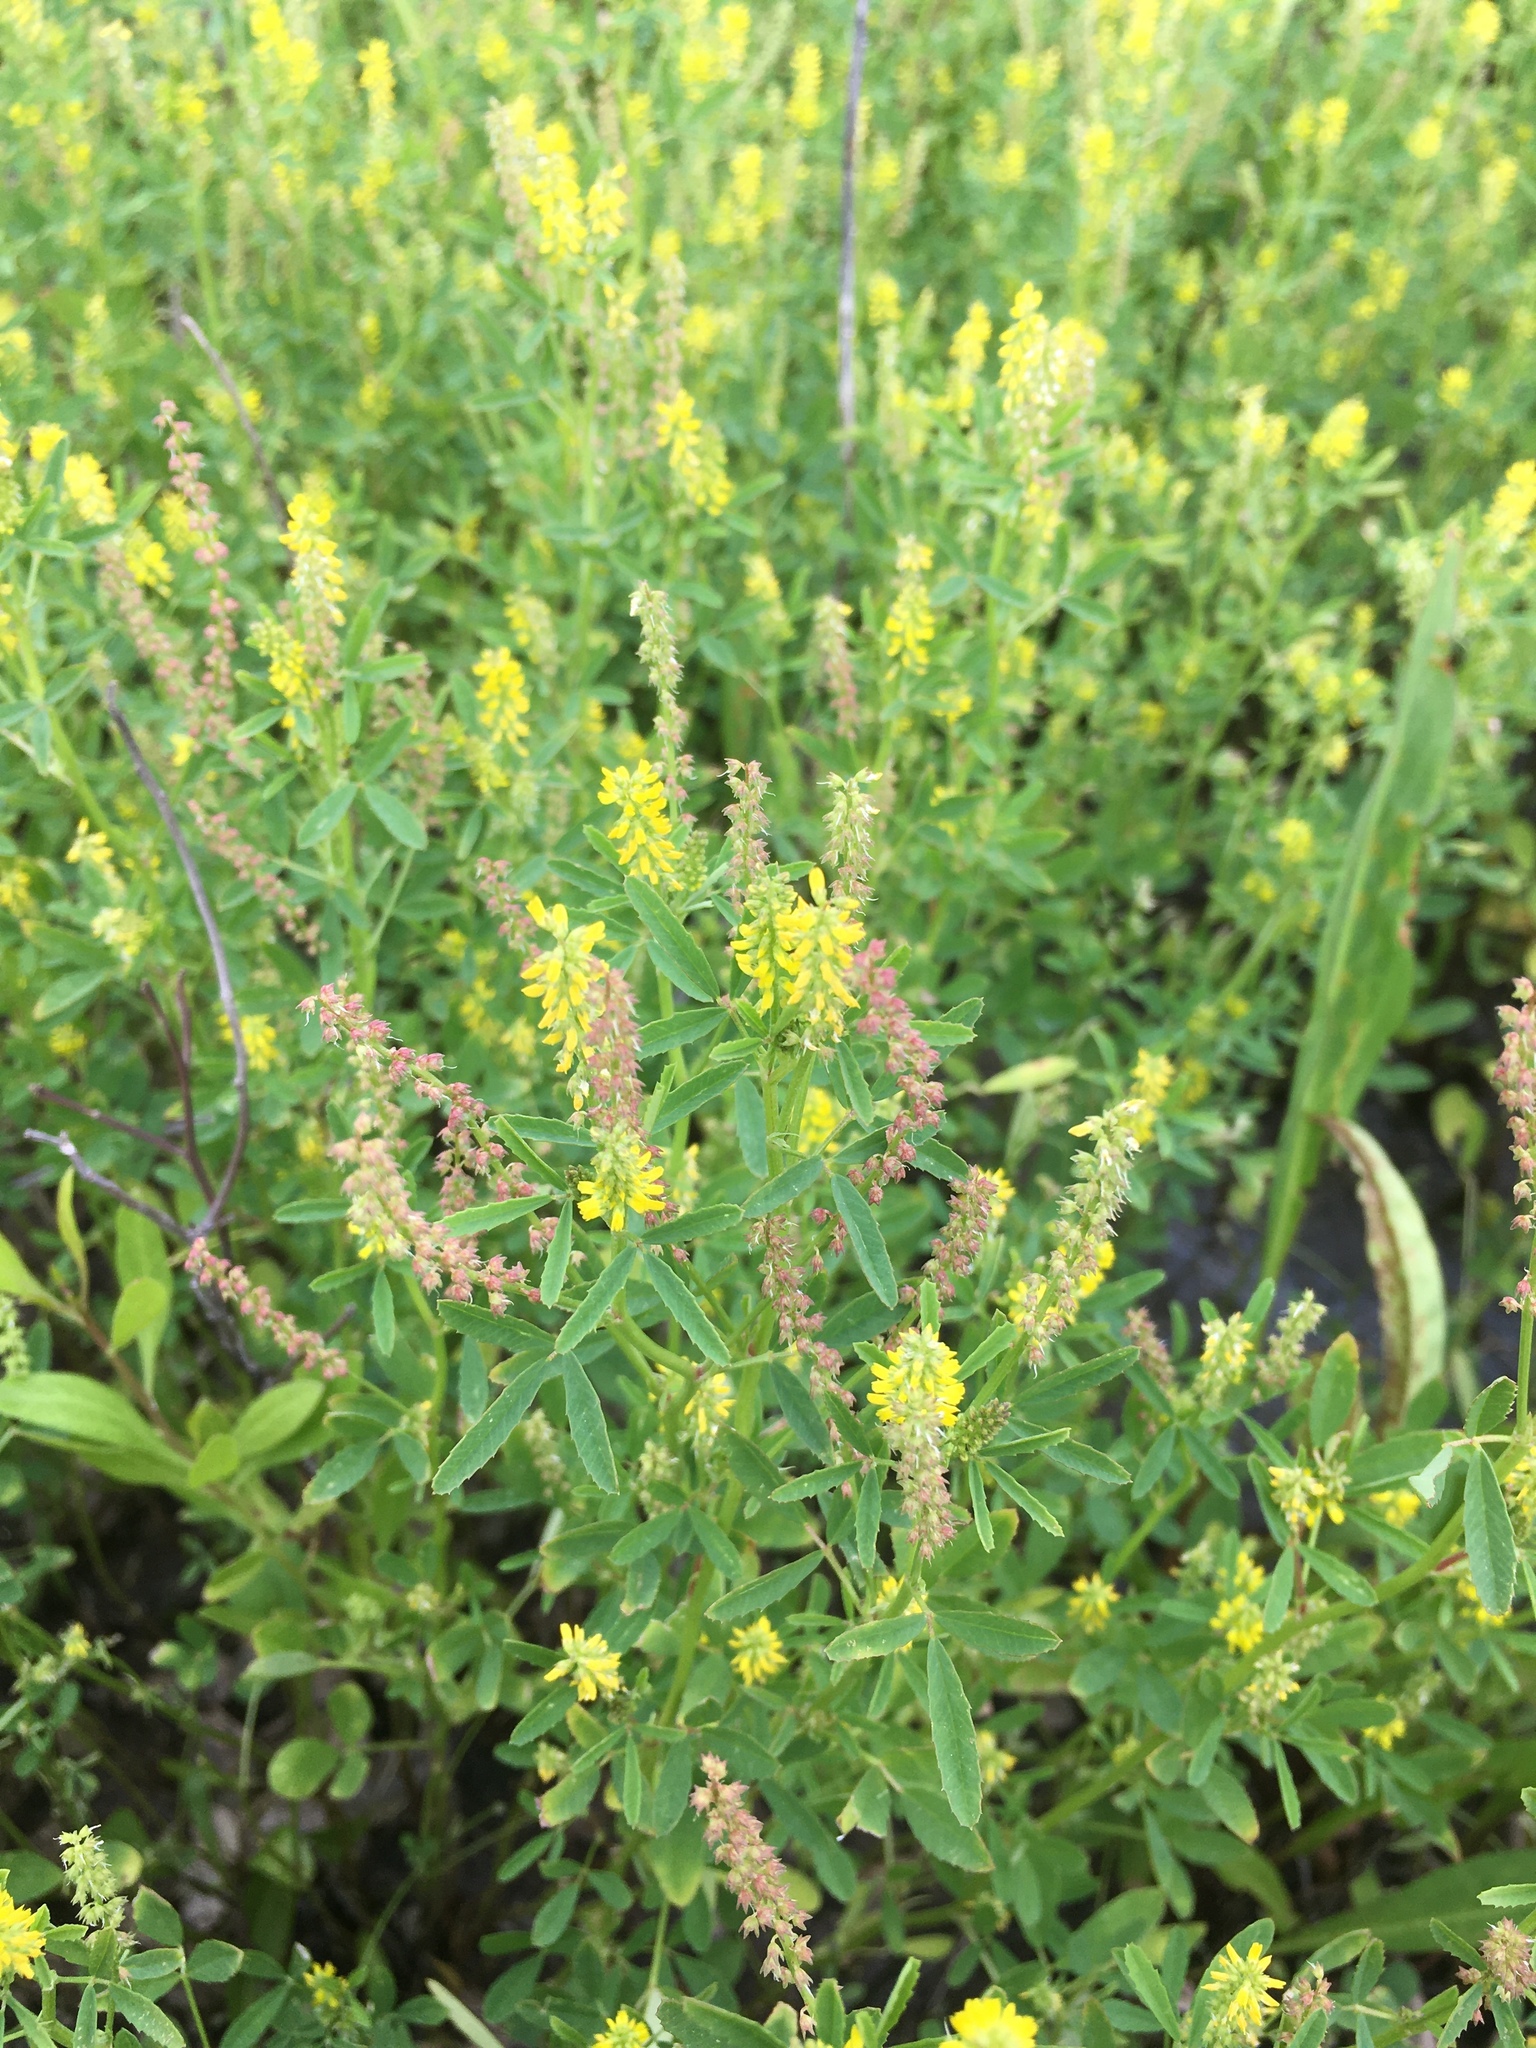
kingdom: Plantae
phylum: Tracheophyta
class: Magnoliopsida
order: Fabales
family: Fabaceae
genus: Melilotus
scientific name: Melilotus indicus
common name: Small melilot
